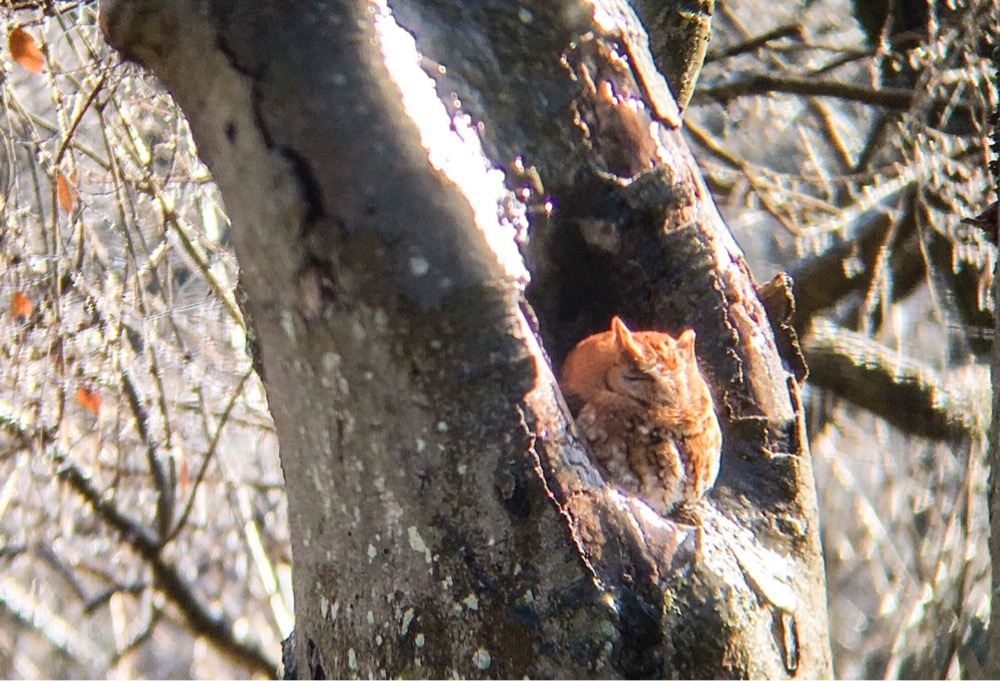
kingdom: Animalia
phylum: Chordata
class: Aves
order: Strigiformes
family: Strigidae
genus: Megascops
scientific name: Megascops asio
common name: Eastern screech-owl
